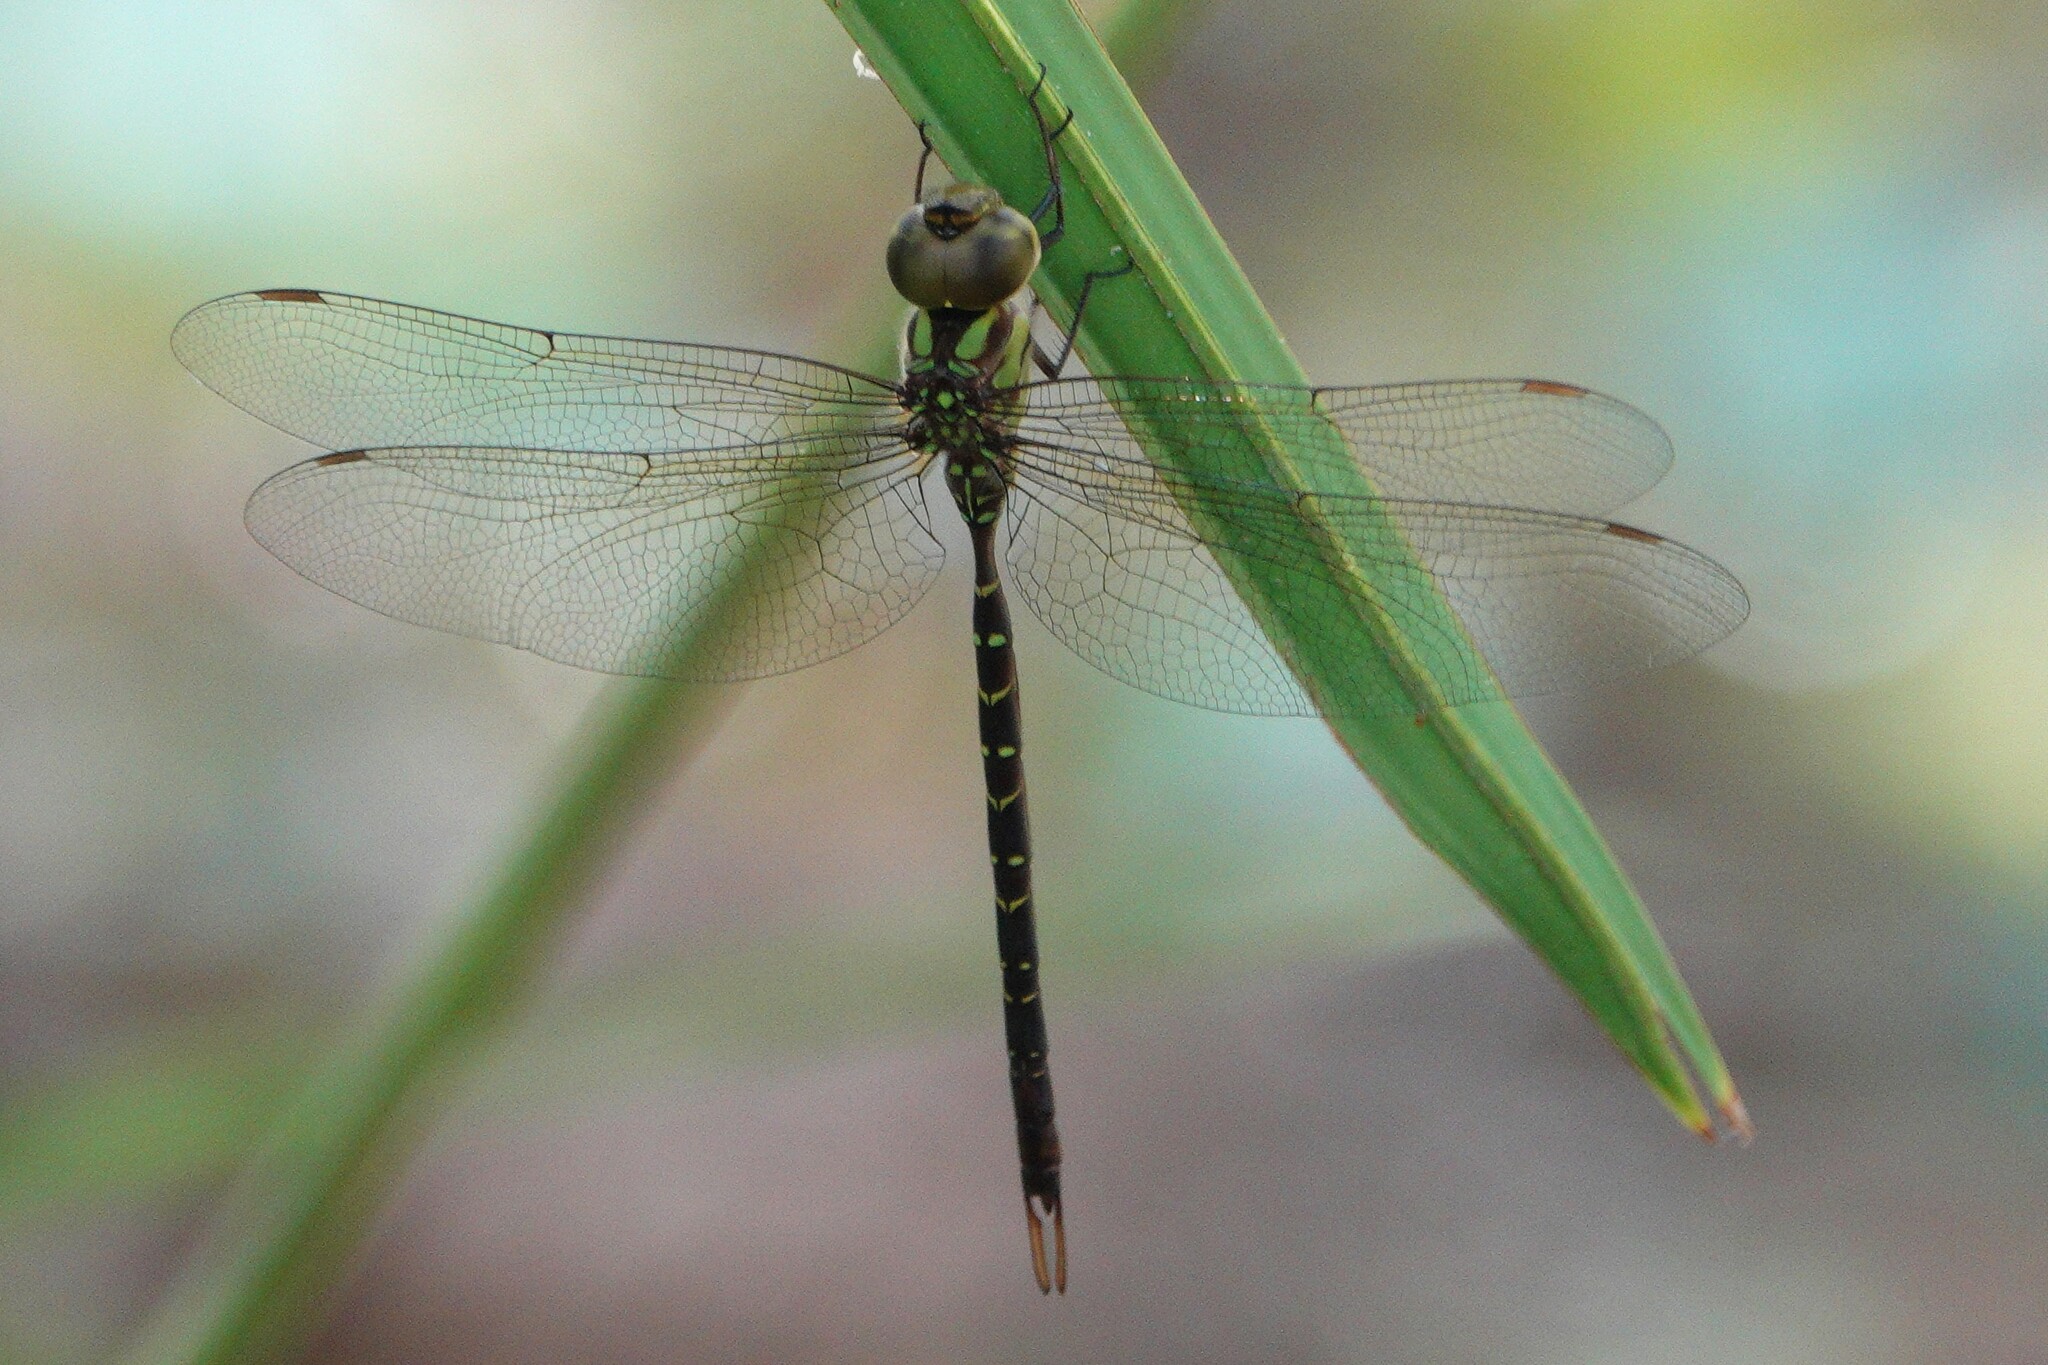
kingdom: Animalia
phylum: Arthropoda
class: Insecta
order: Odonata
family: Aeshnidae
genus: Triacanthagyna
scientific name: Triacanthagyna trifida
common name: Phantom darner
